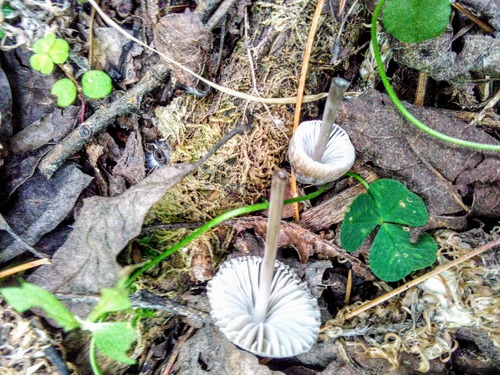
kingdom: Fungi
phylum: Basidiomycota
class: Agaricomycetes
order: Agaricales
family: Mycenaceae
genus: Mycena
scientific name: Mycena
